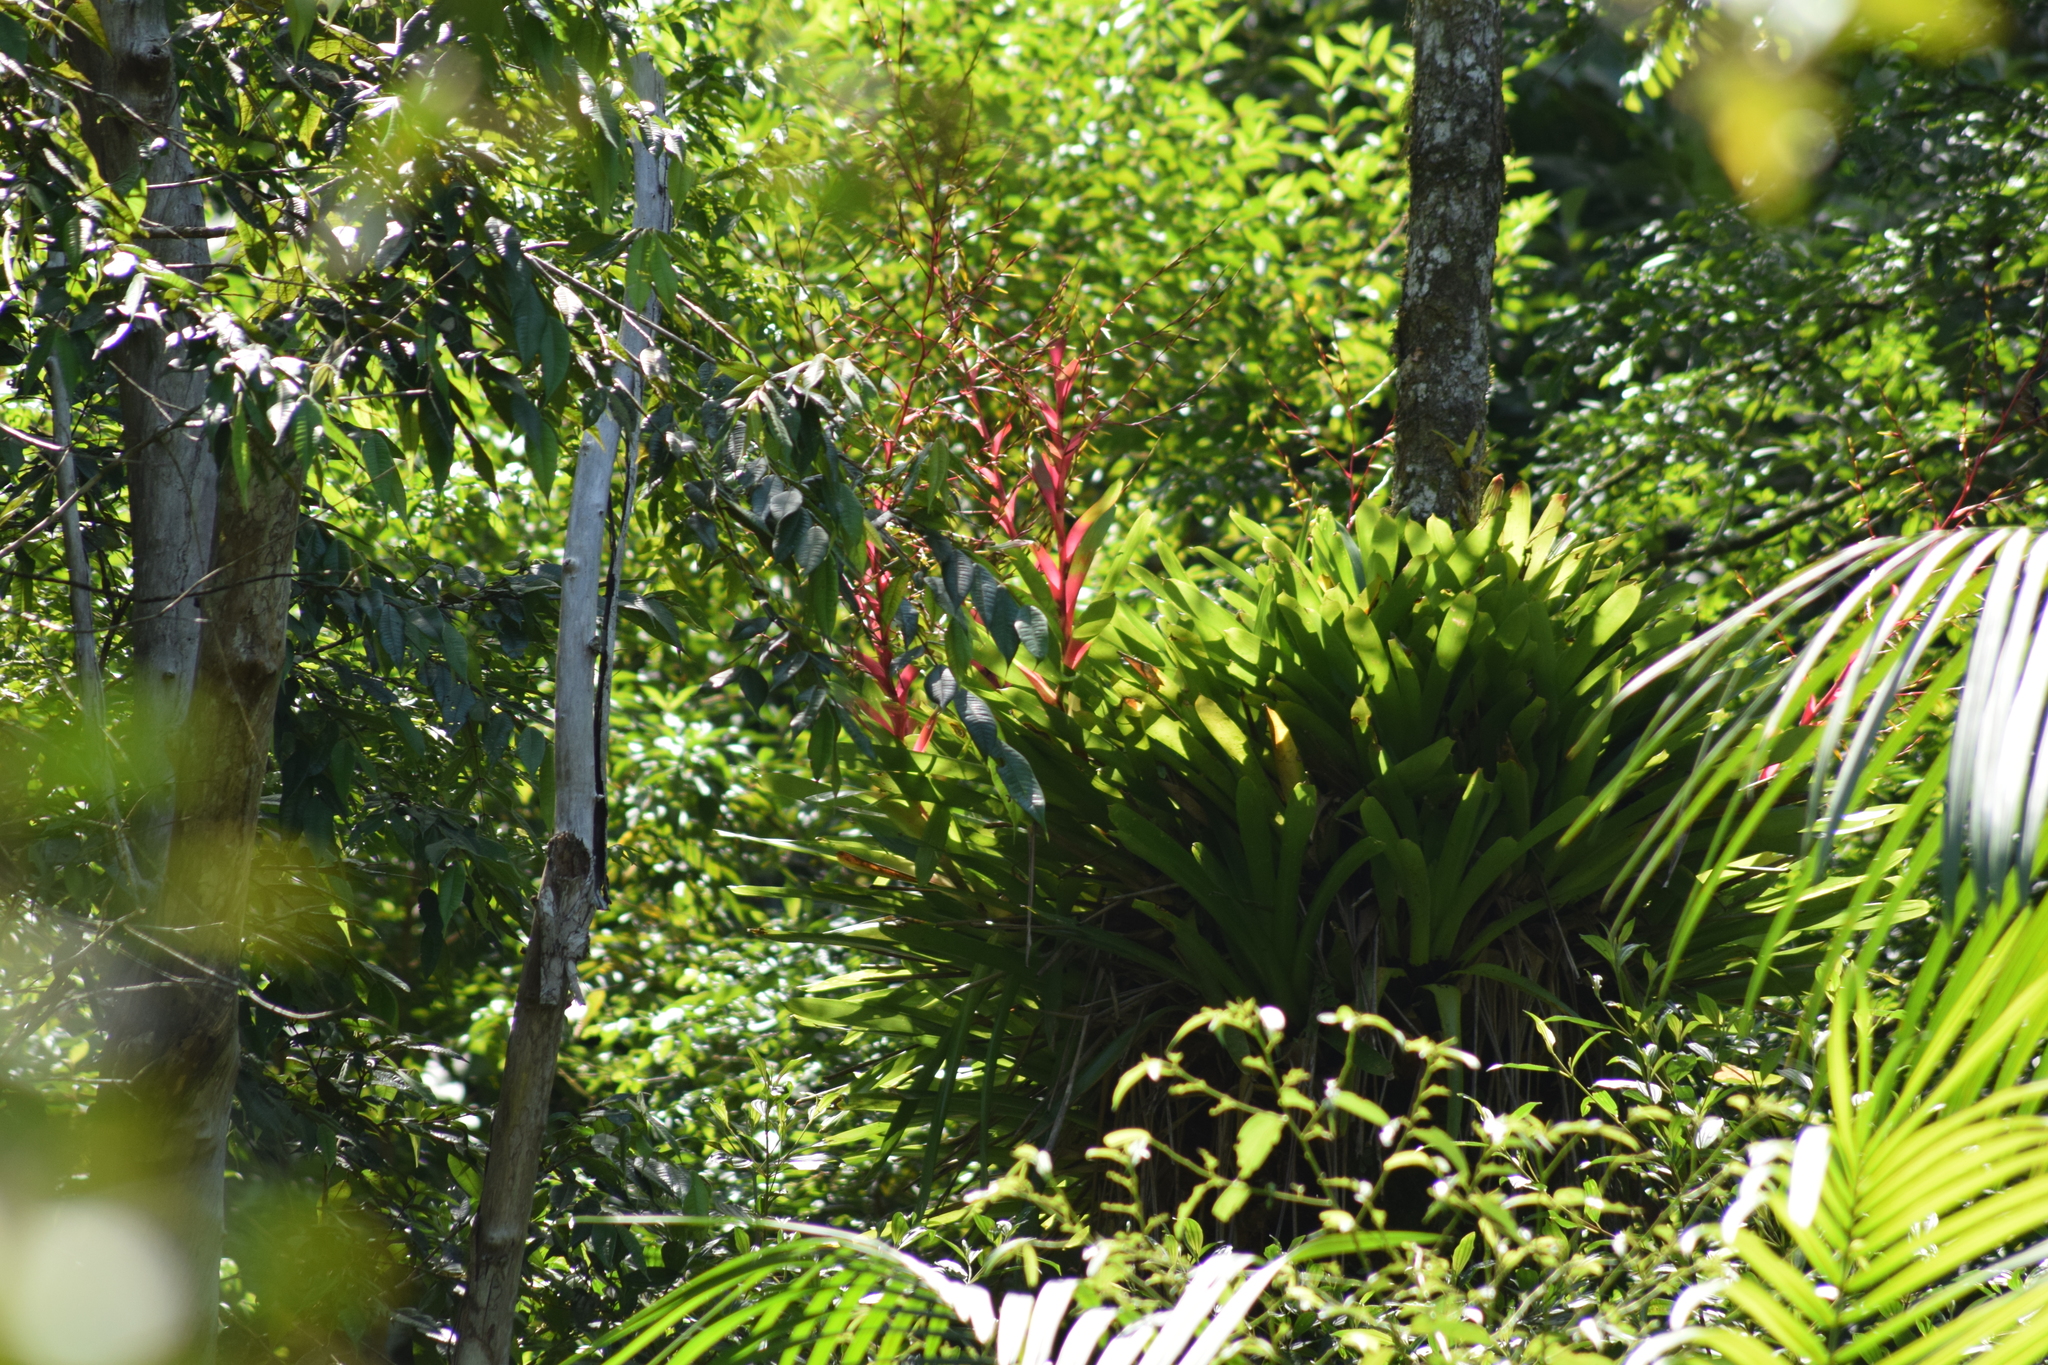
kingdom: Plantae
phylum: Tracheophyta
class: Liliopsida
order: Poales
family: Bromeliaceae
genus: Vriesea
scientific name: Vriesea philippocoburgi
